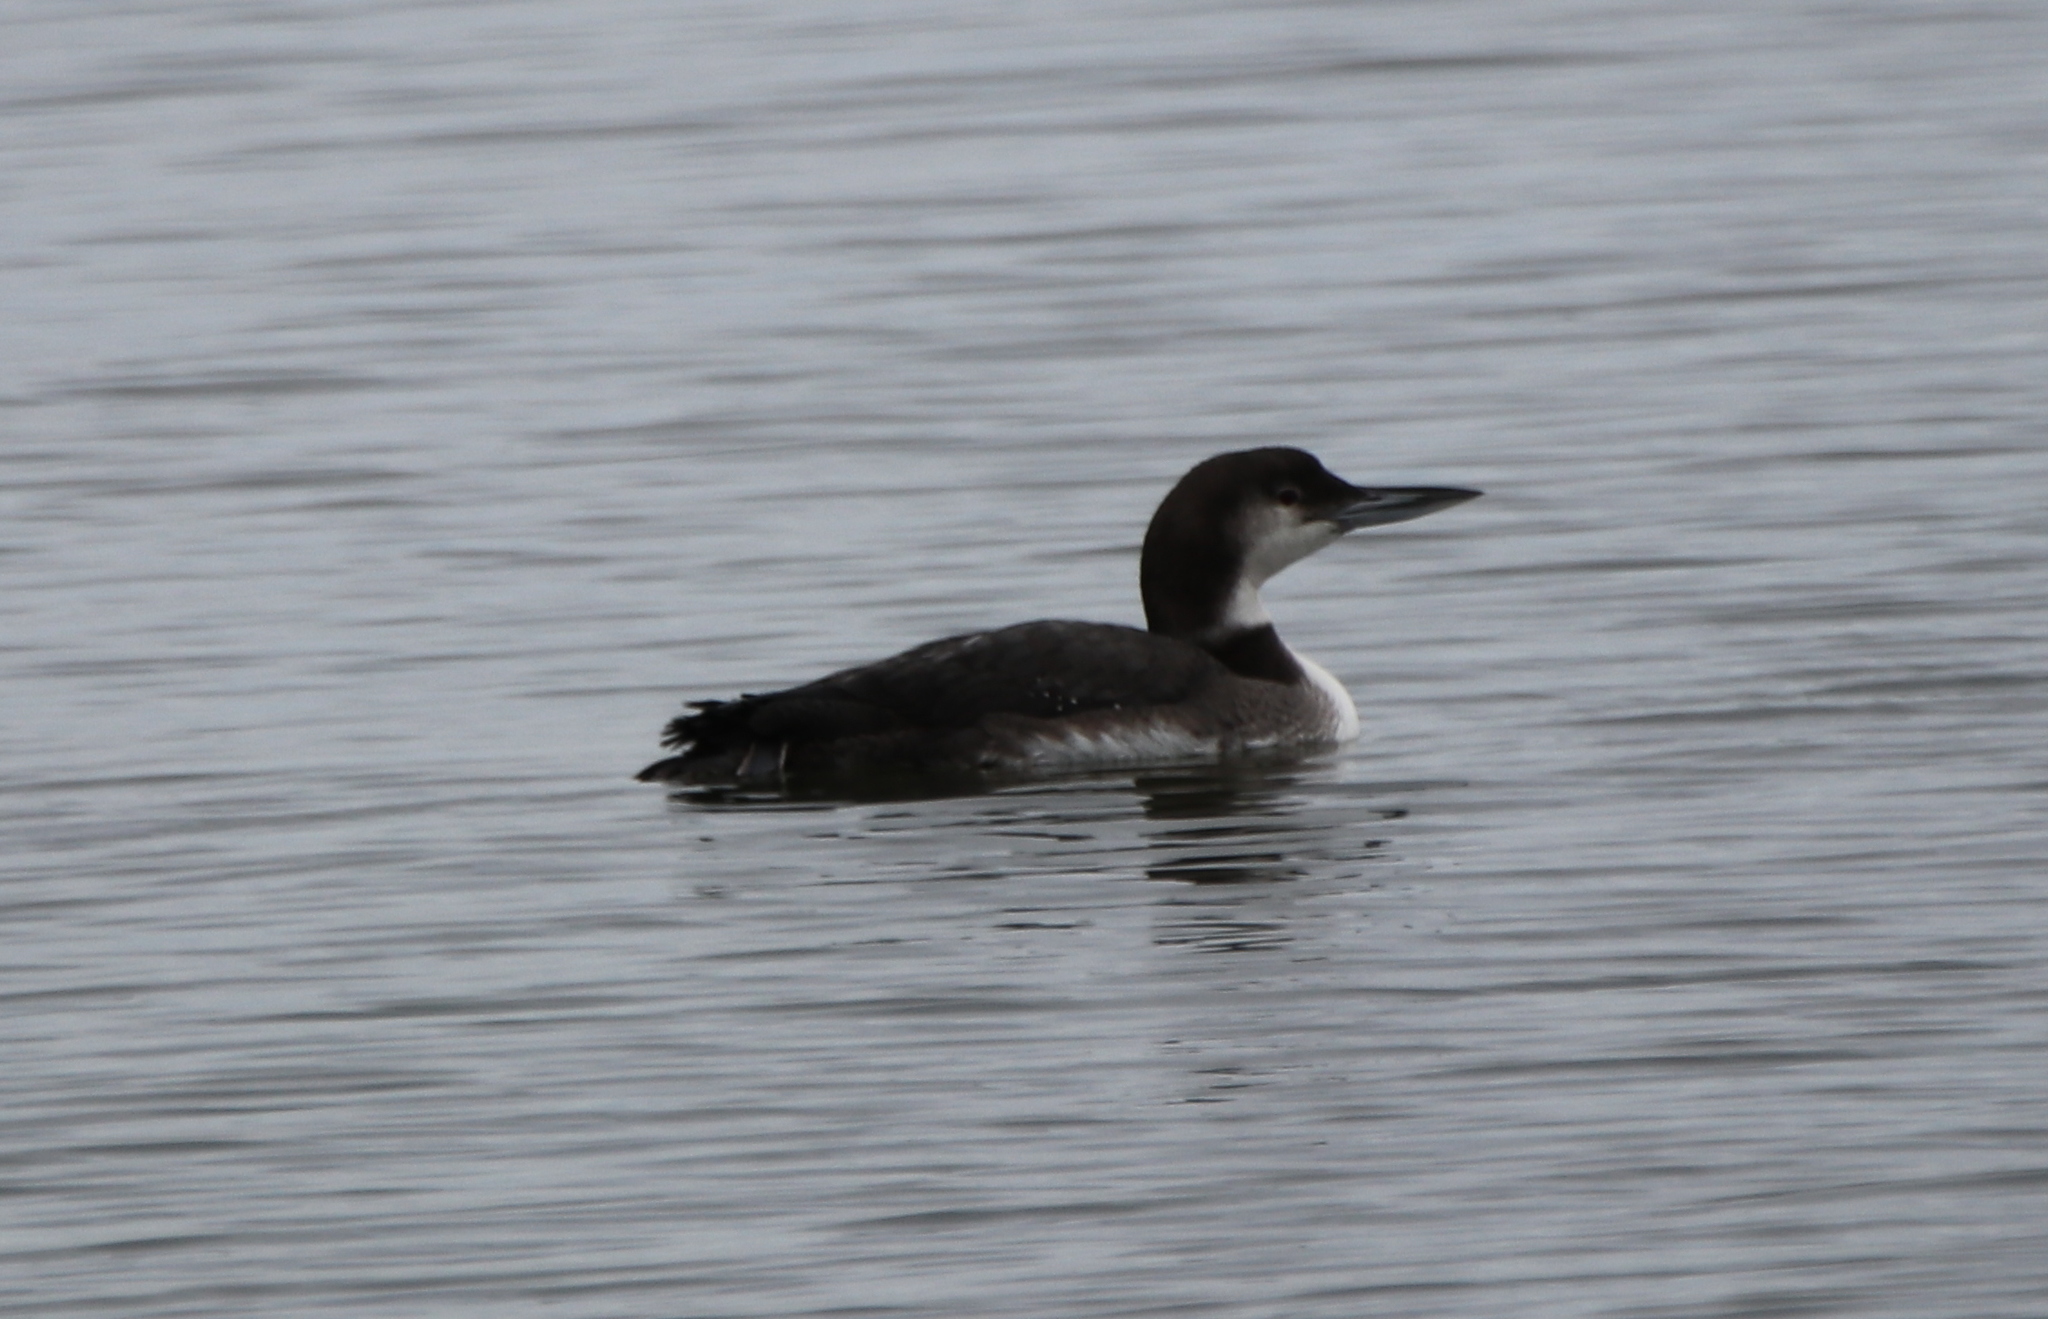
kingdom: Animalia
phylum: Chordata
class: Aves
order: Gaviiformes
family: Gaviidae
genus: Gavia
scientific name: Gavia immer
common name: Common loon
